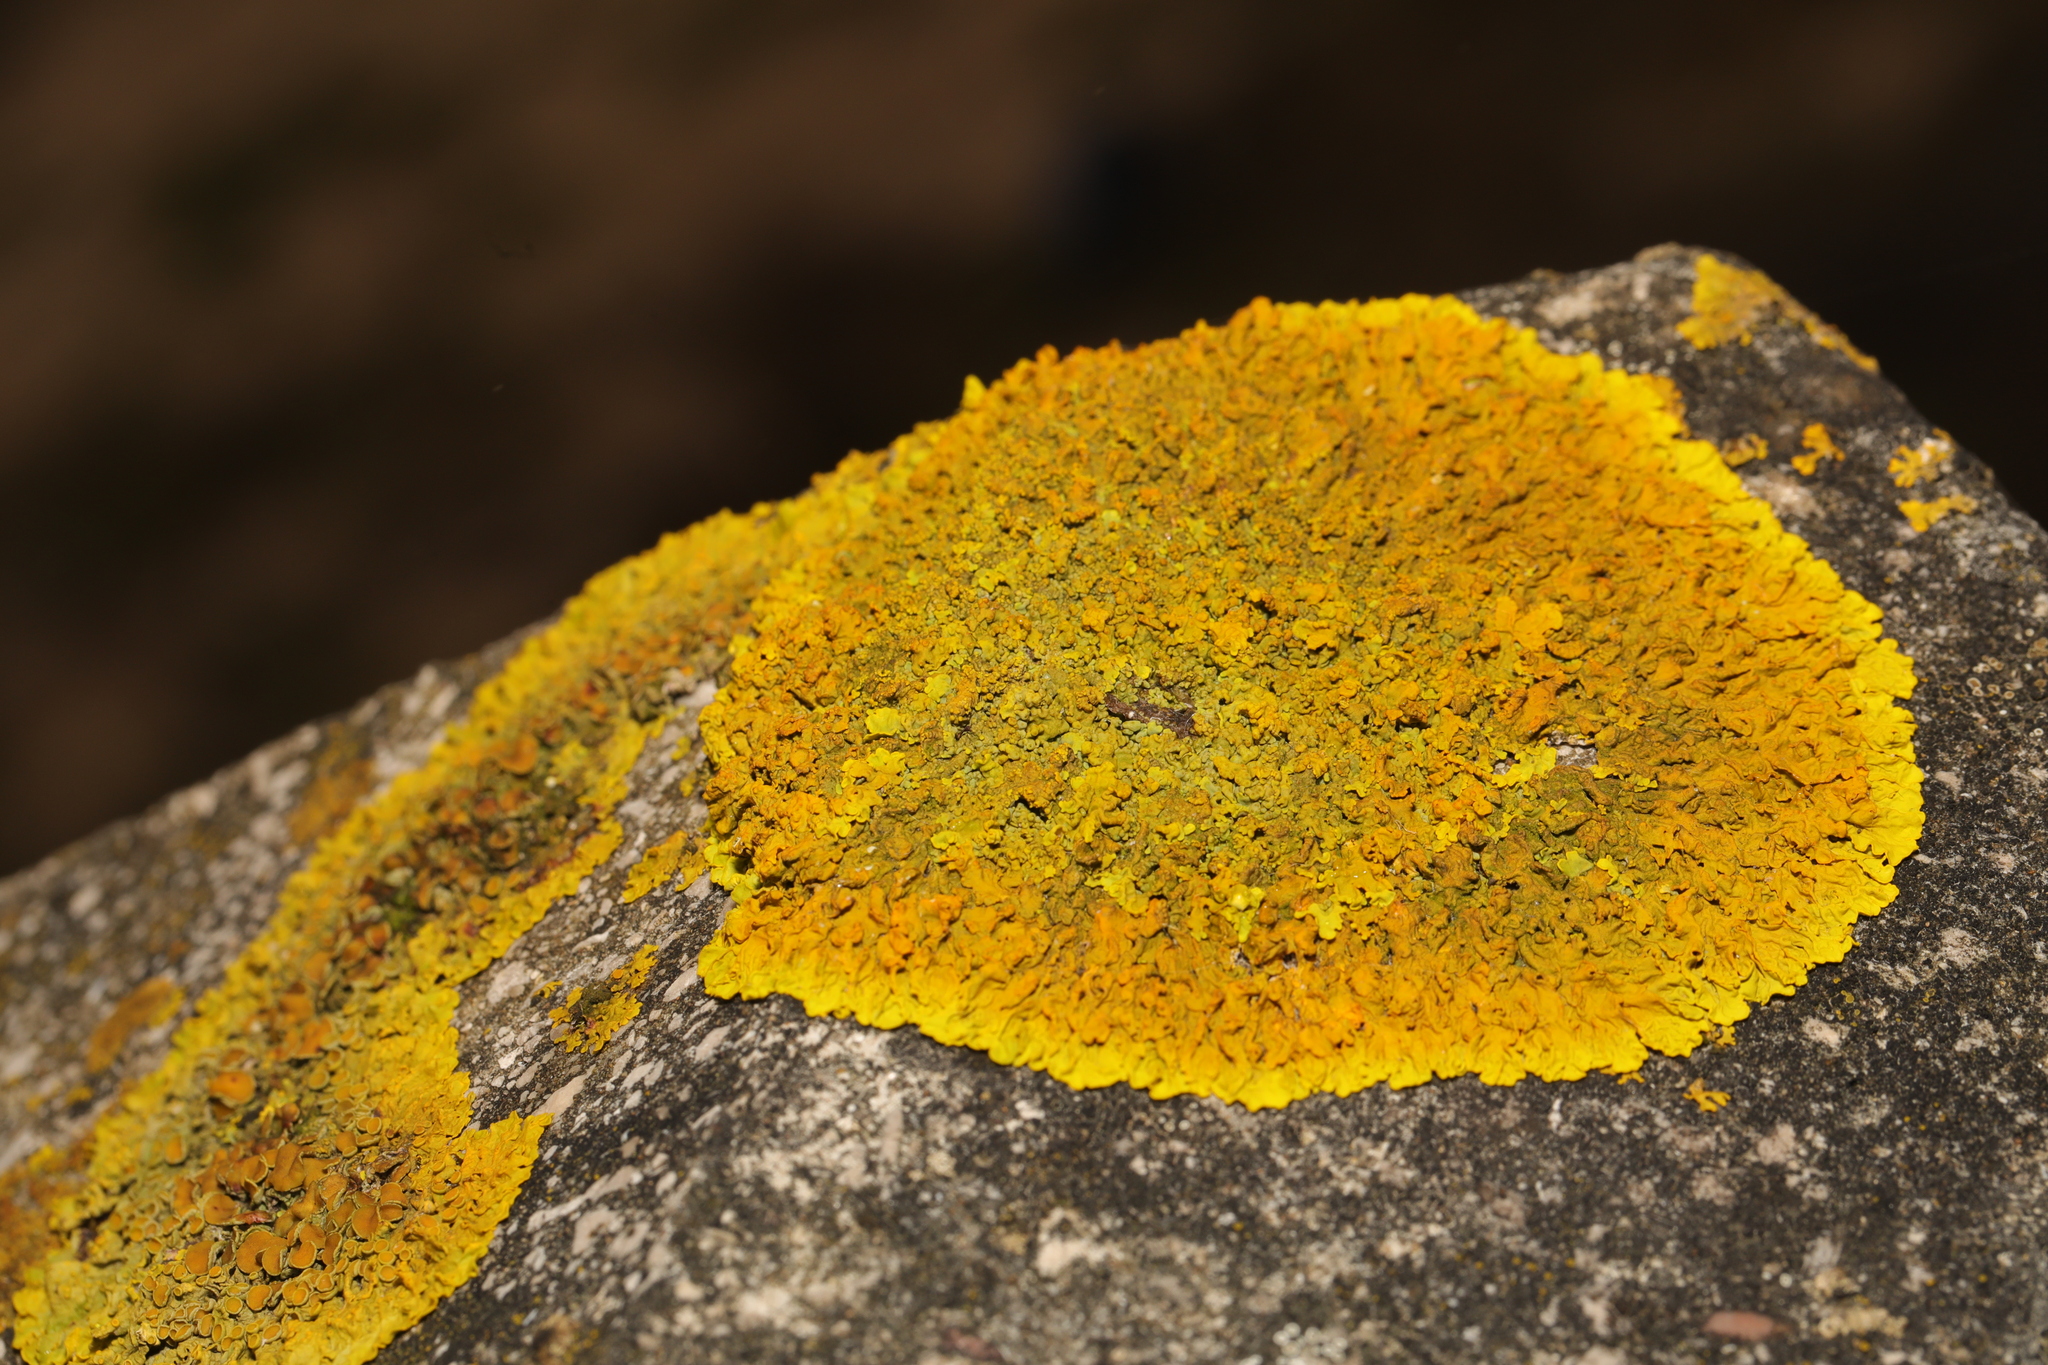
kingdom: Fungi
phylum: Ascomycota
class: Lecanoromycetes
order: Teloschistales
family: Teloschistaceae
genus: Xanthoria
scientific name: Xanthoria calcicola
